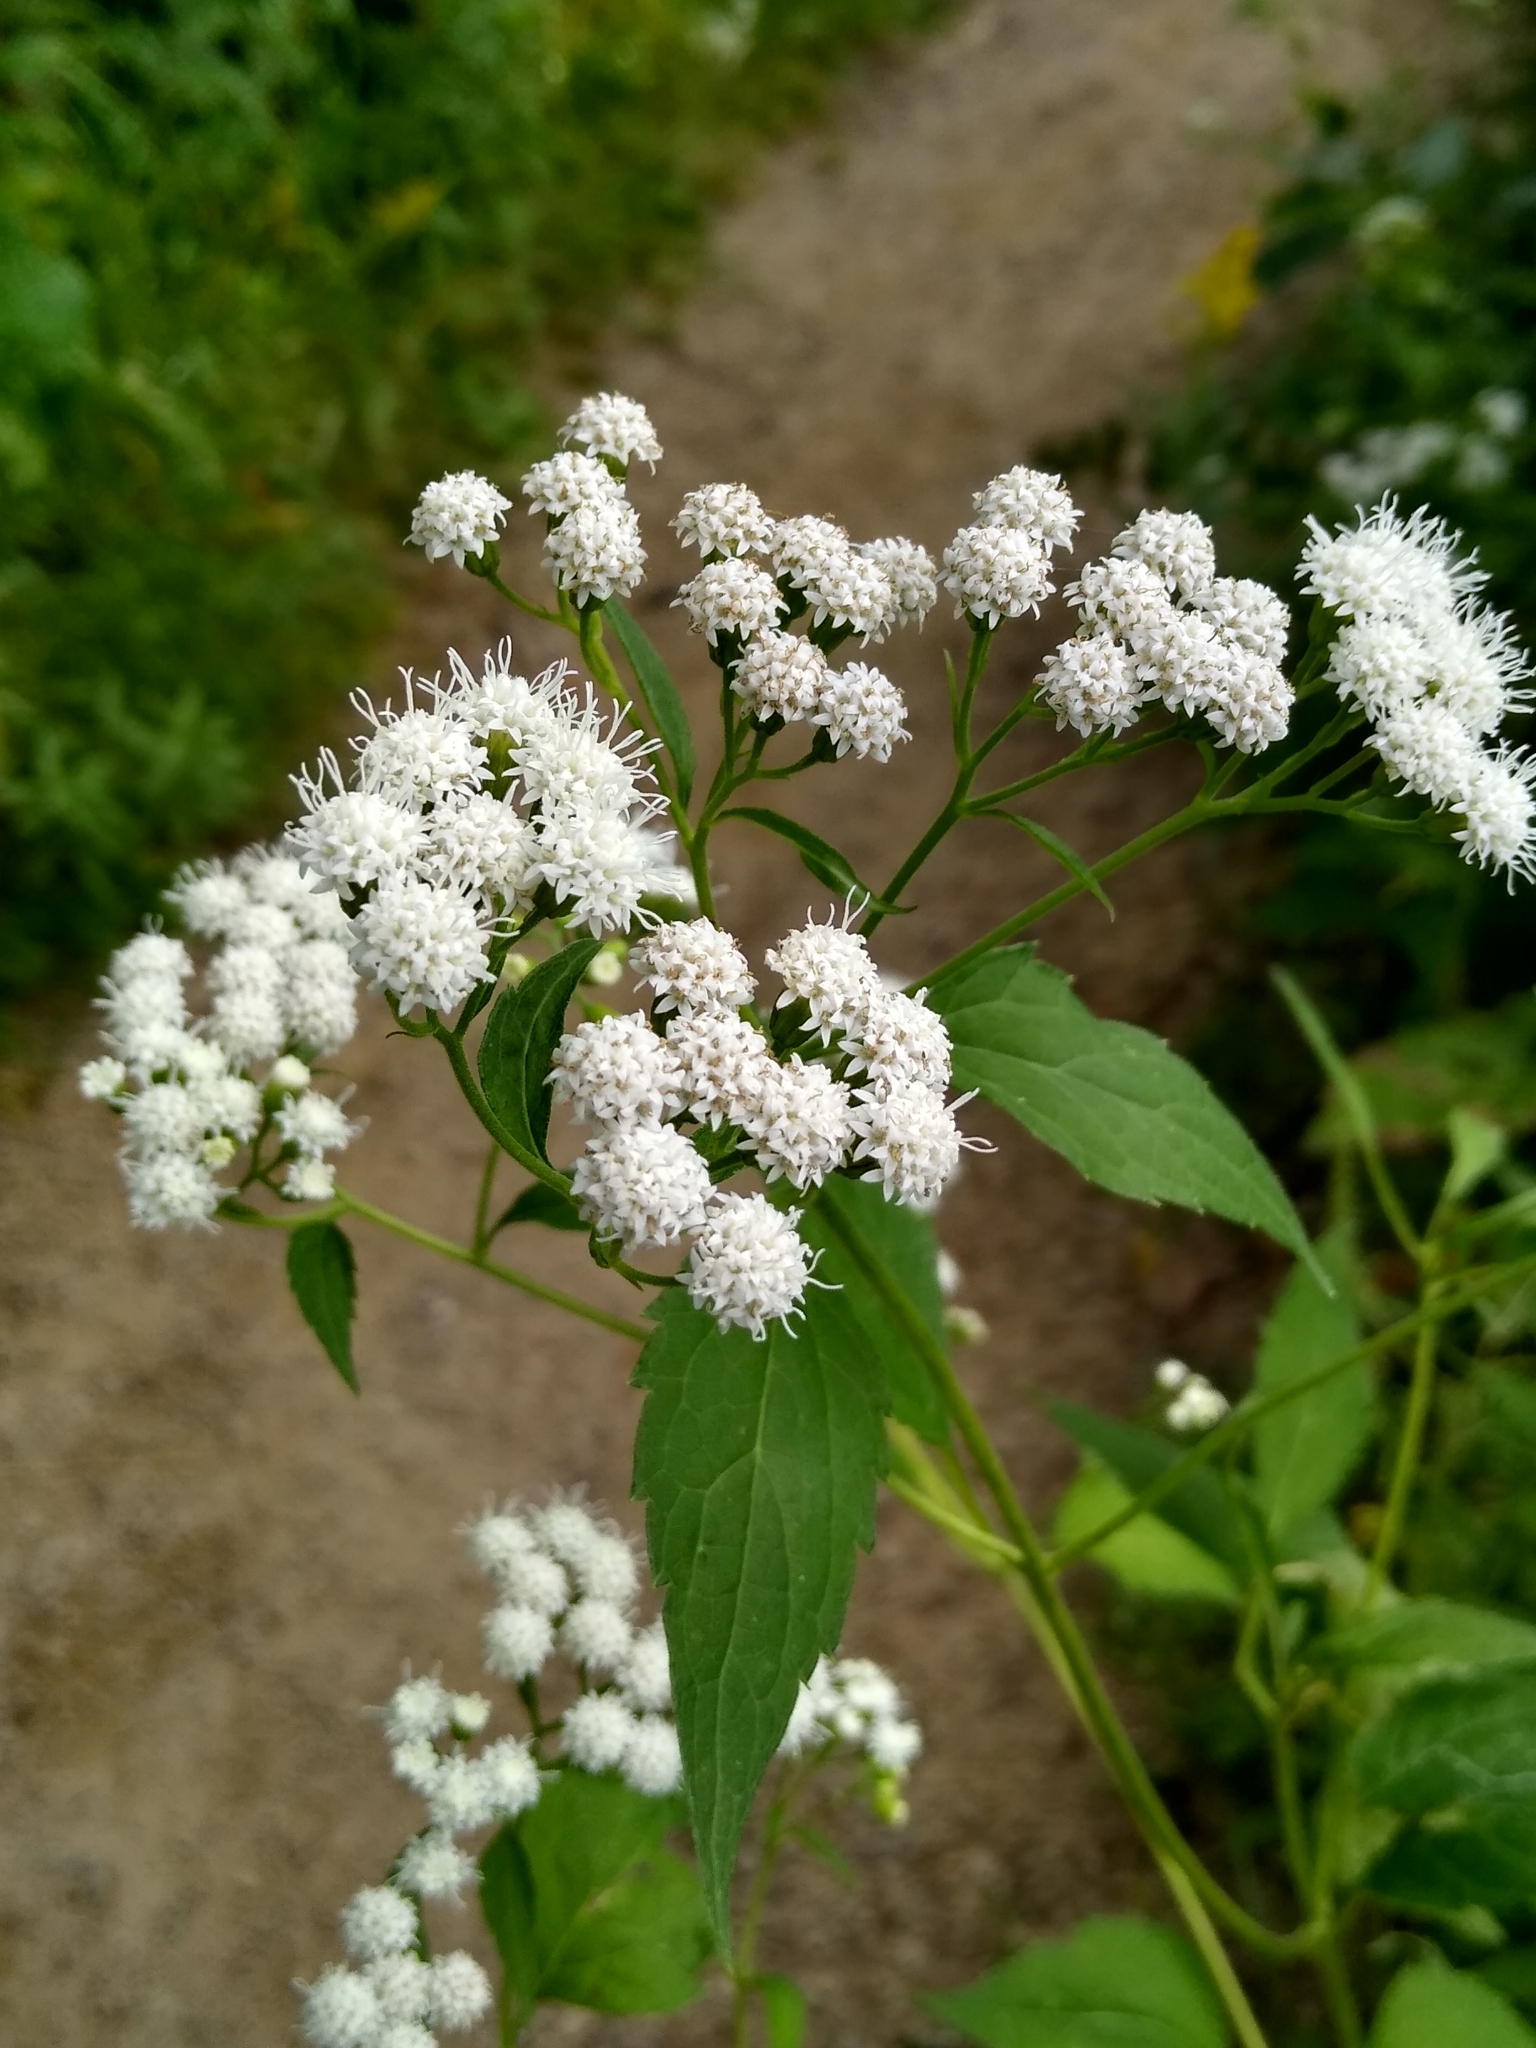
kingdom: Plantae
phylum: Tracheophyta
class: Magnoliopsida
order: Asterales
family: Asteraceae
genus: Ageratina
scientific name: Ageratina altissima
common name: White snakeroot
